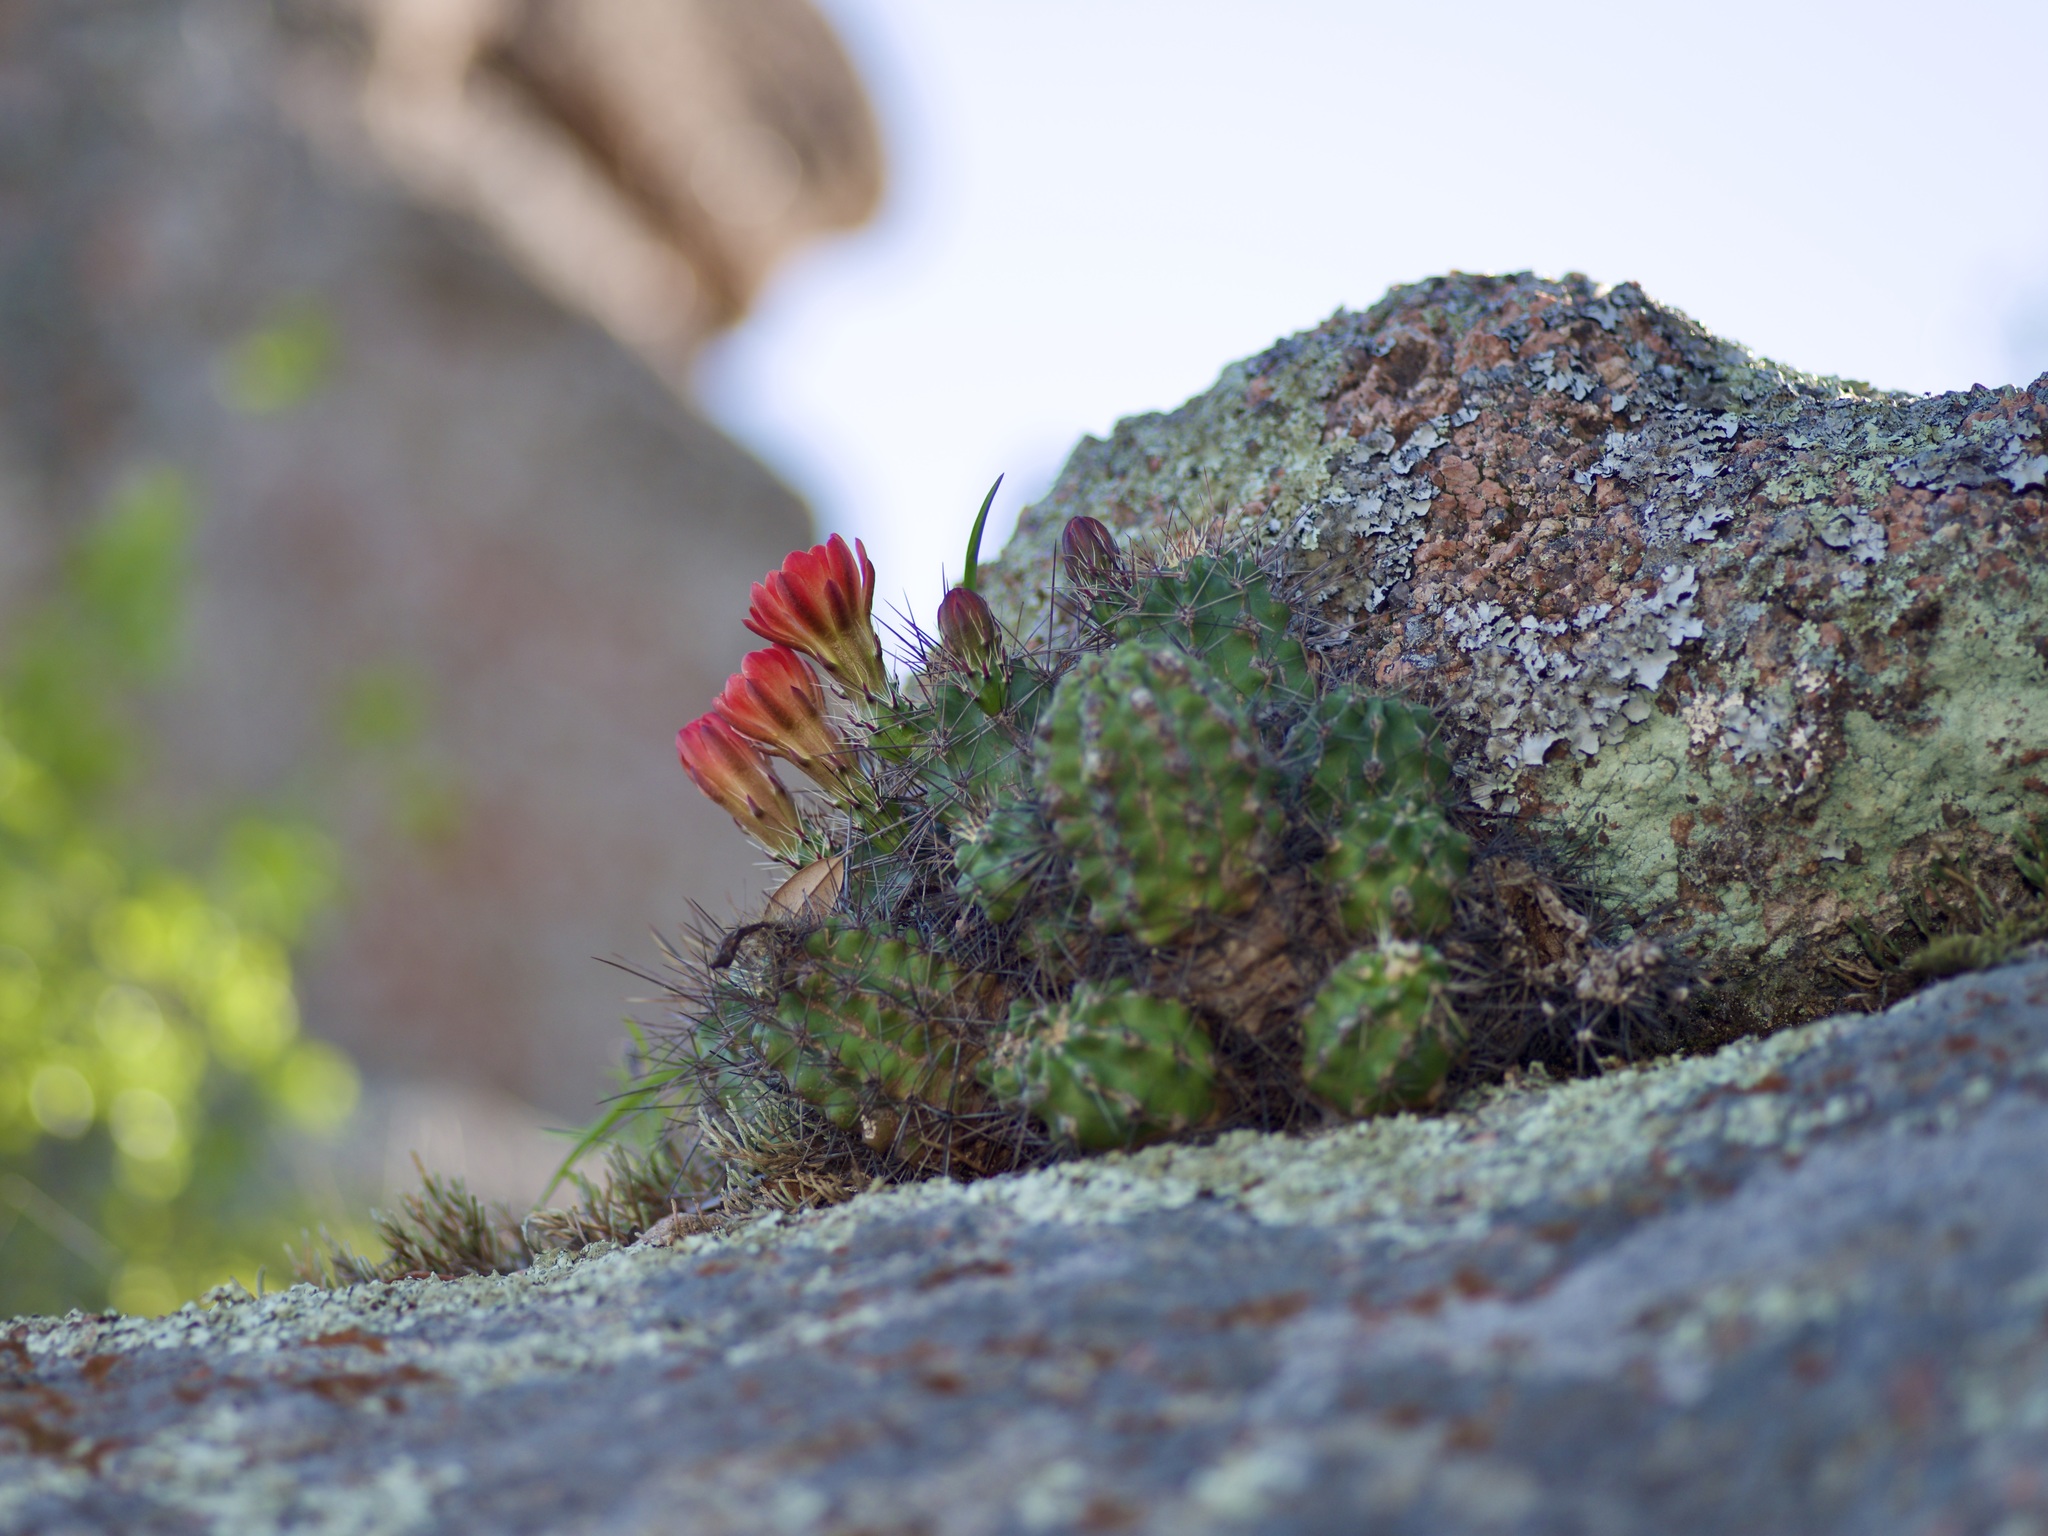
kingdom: Plantae
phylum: Tracheophyta
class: Magnoliopsida
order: Caryophyllales
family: Cactaceae
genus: Echinocereus
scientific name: Echinocereus coccineus
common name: Scarlet hedgehog cactus
